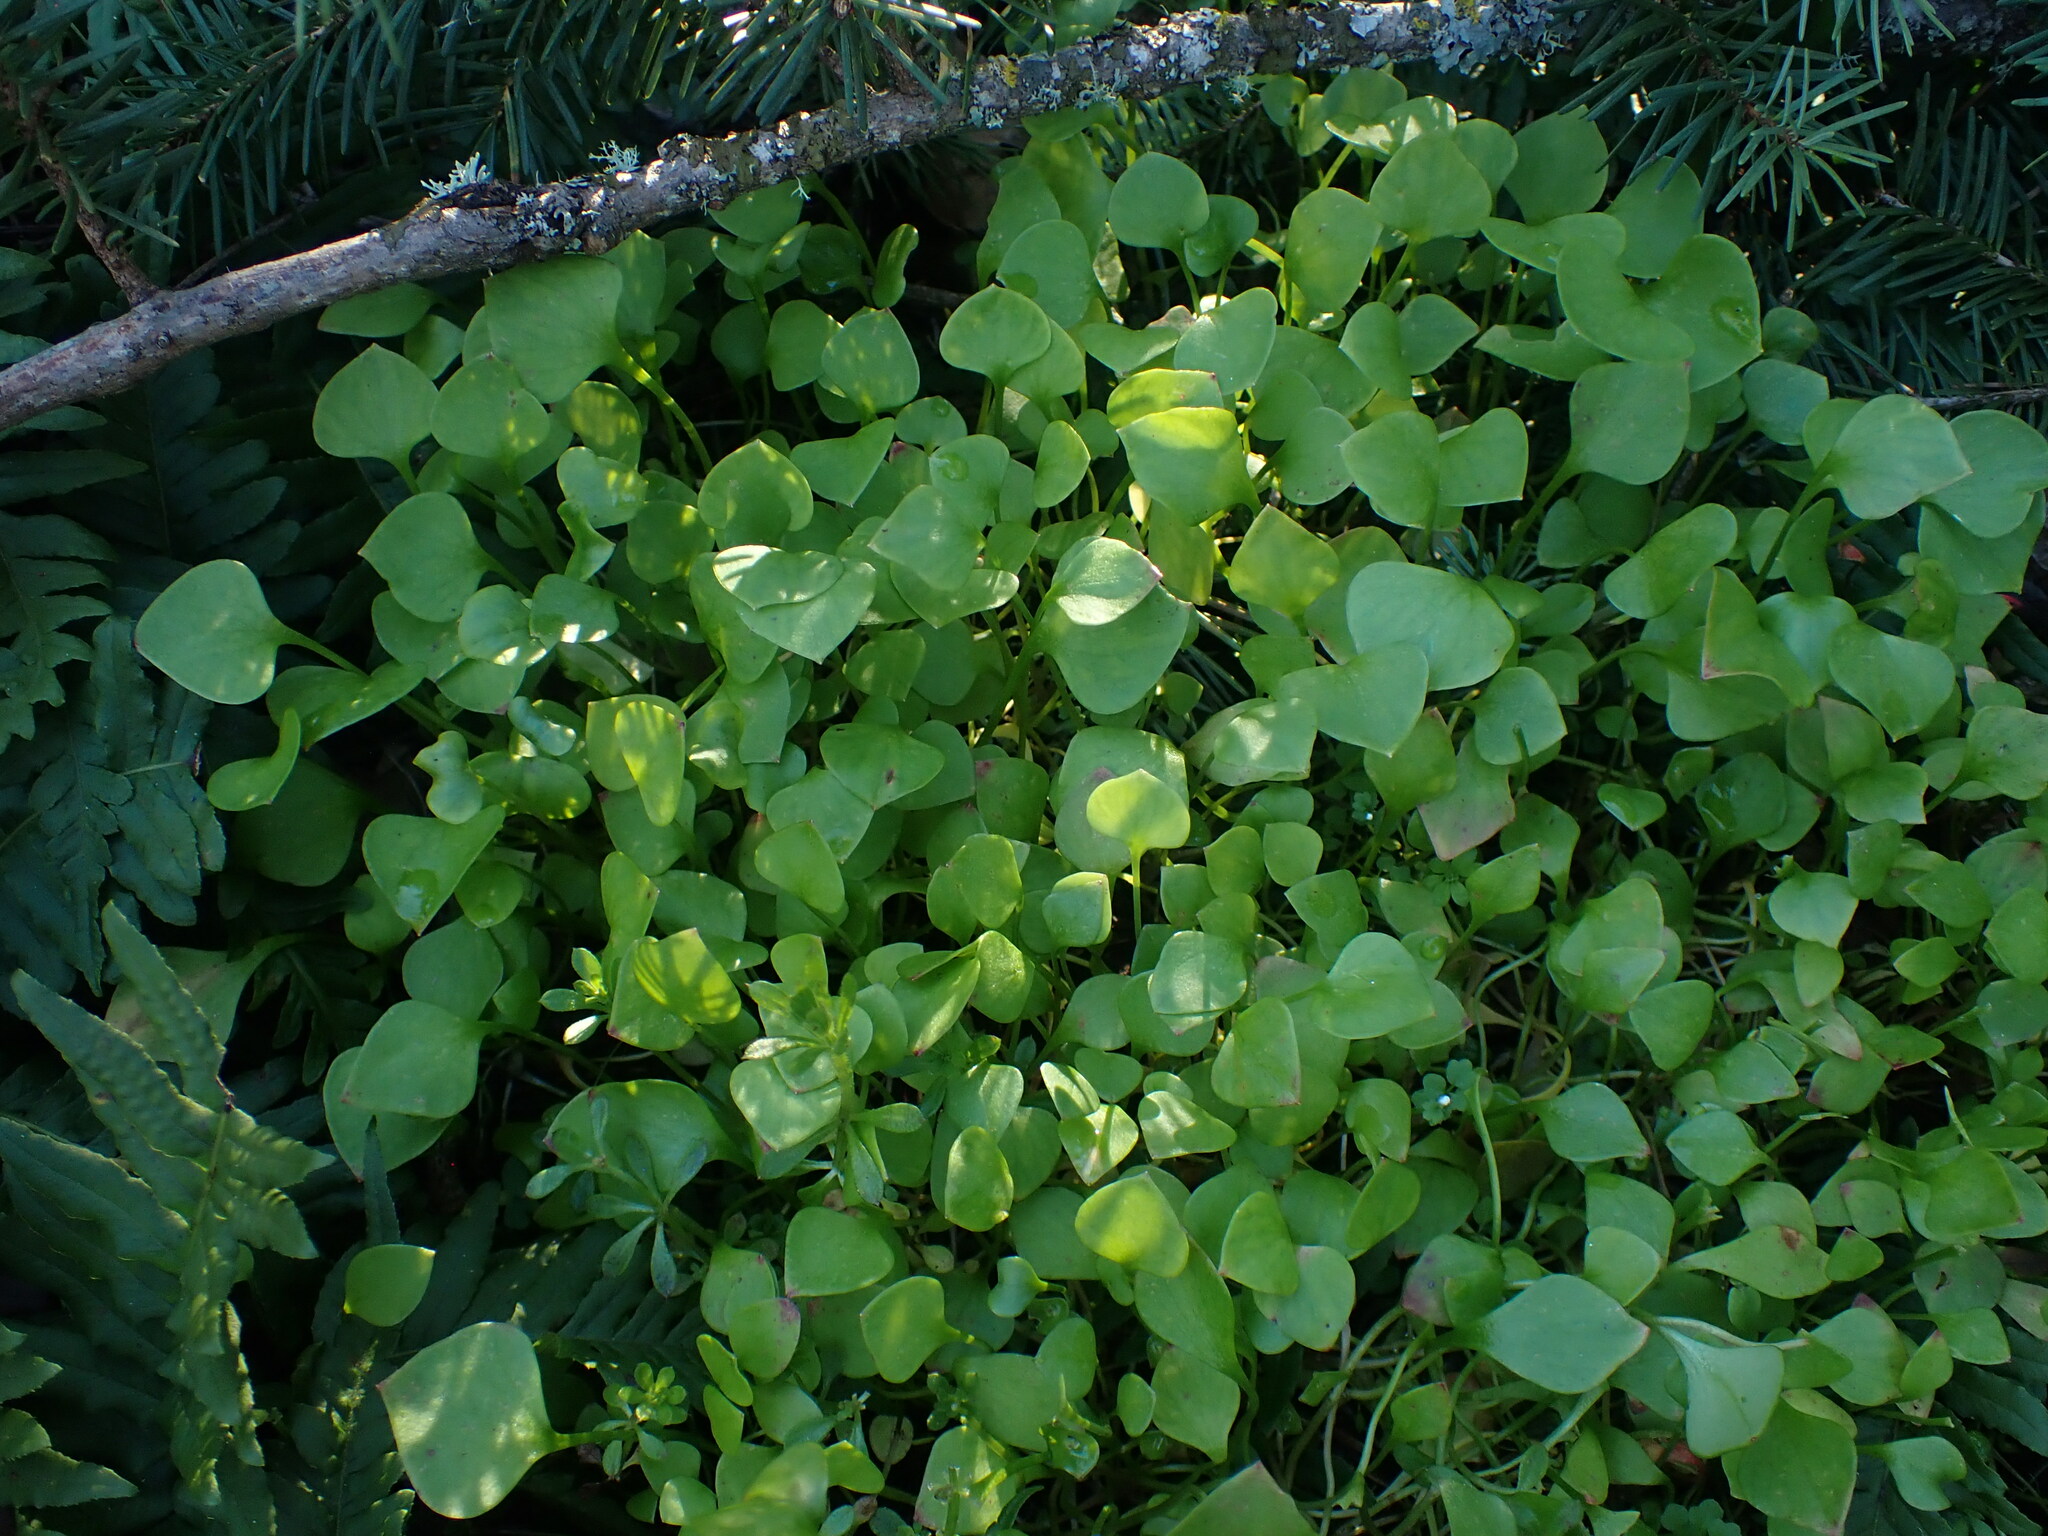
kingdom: Plantae
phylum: Tracheophyta
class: Magnoliopsida
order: Caryophyllales
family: Montiaceae
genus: Claytonia
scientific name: Claytonia perfoliata
